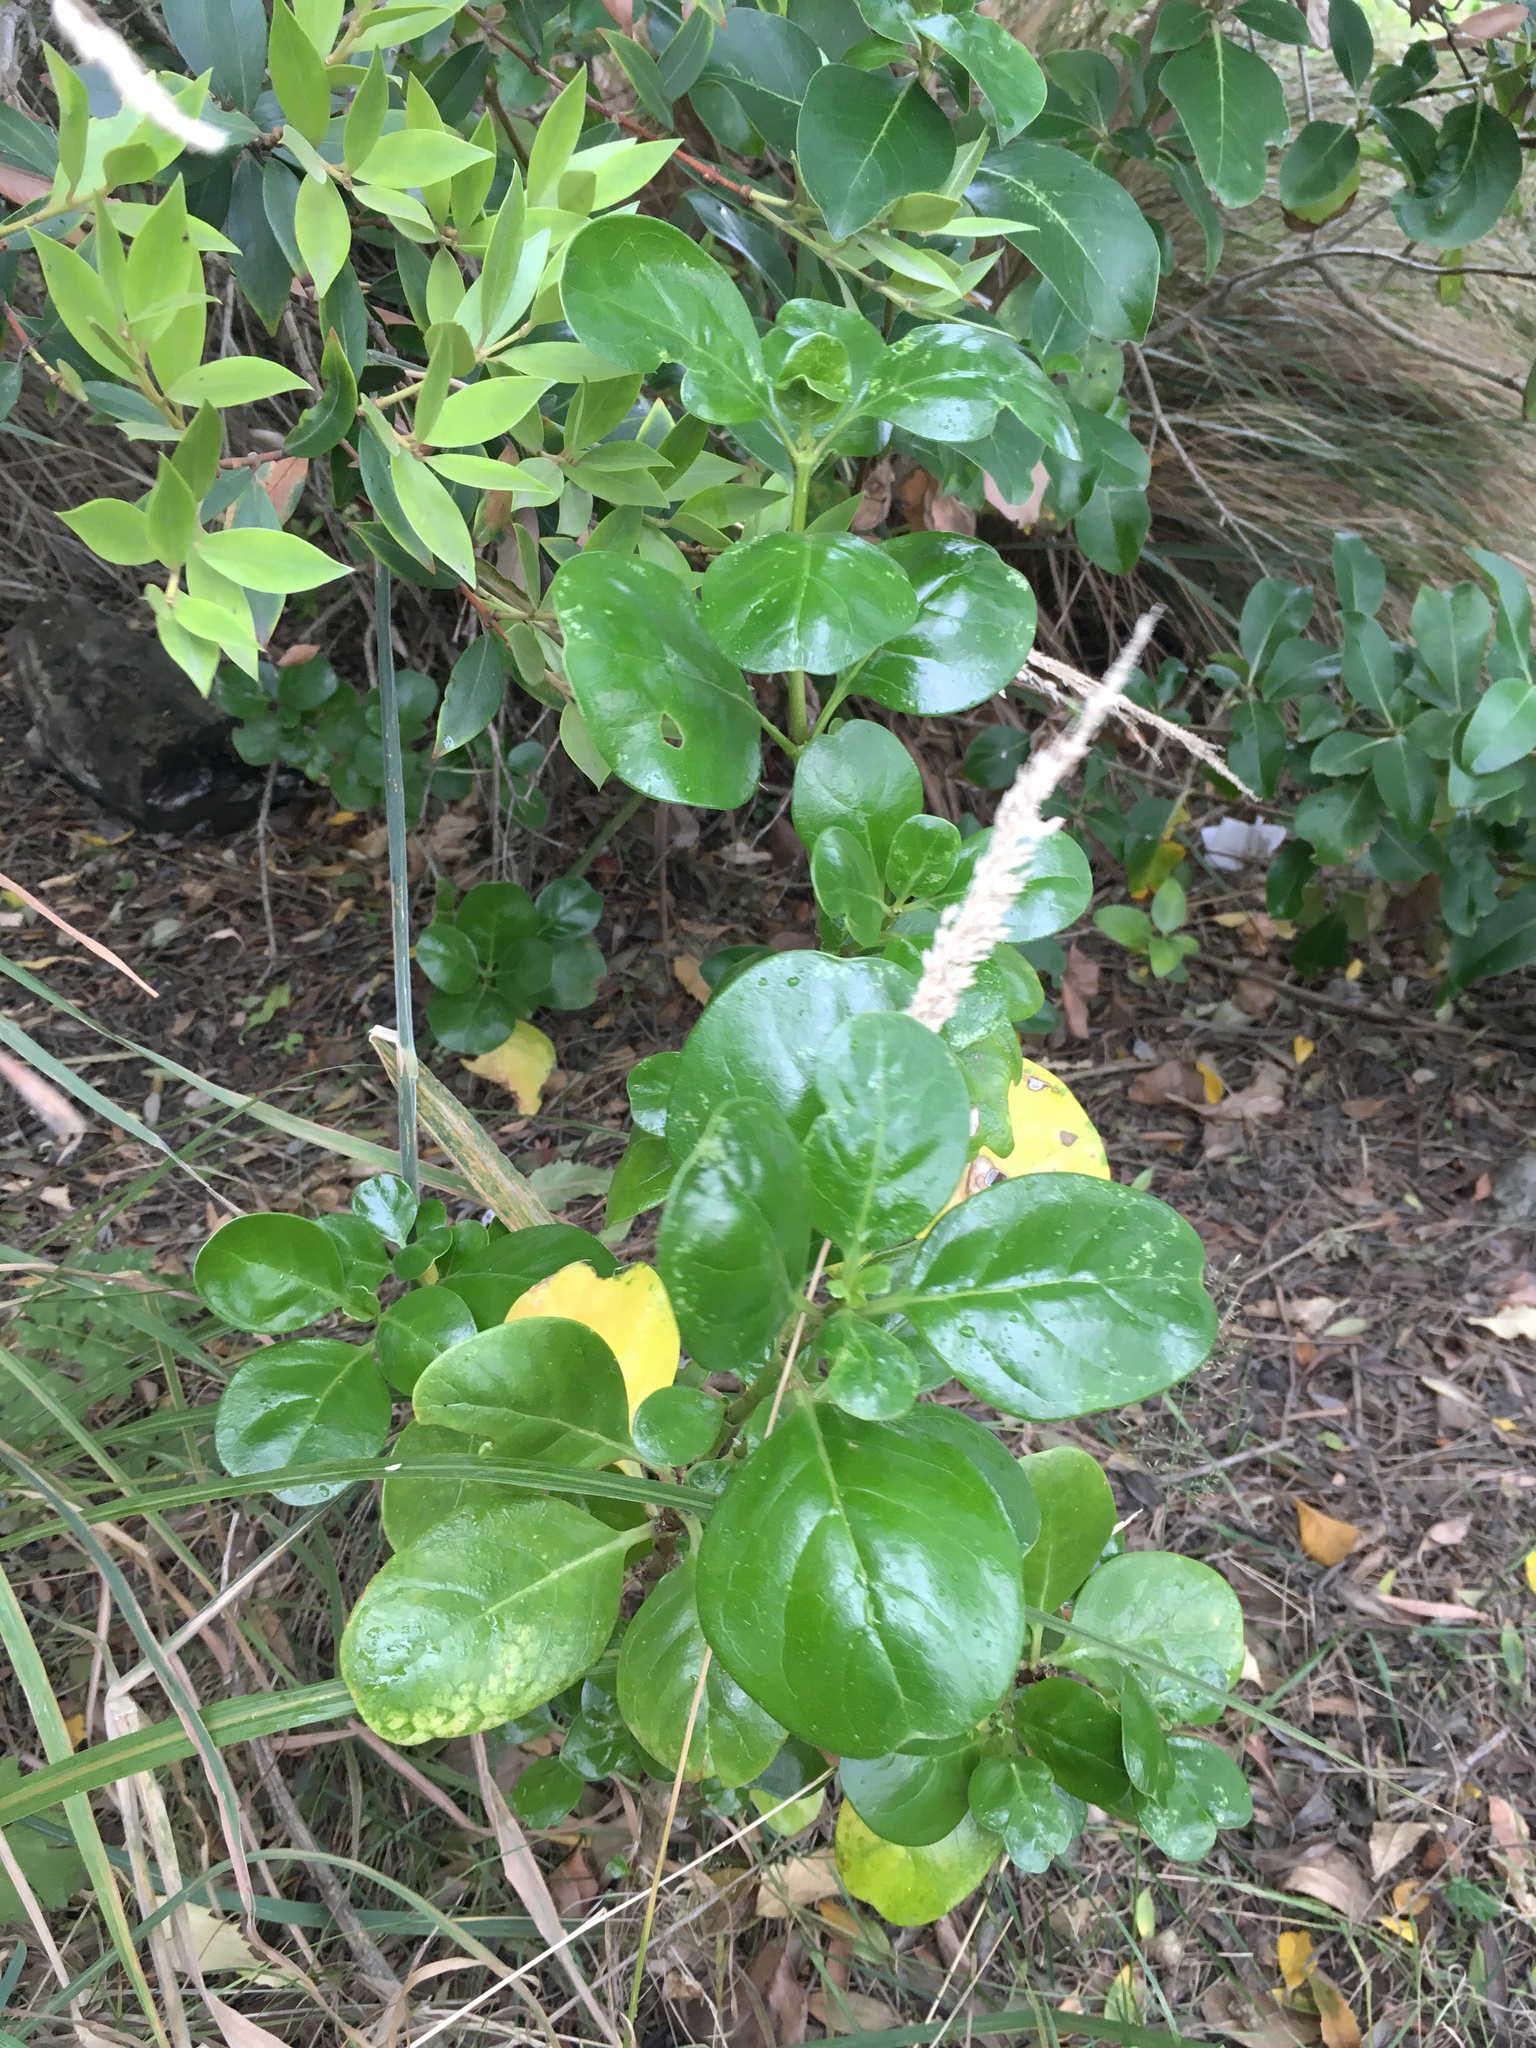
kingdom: Plantae
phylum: Tracheophyta
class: Magnoliopsida
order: Gentianales
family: Rubiaceae
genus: Coprosma
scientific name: Coprosma repens
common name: Tree bedstraw
